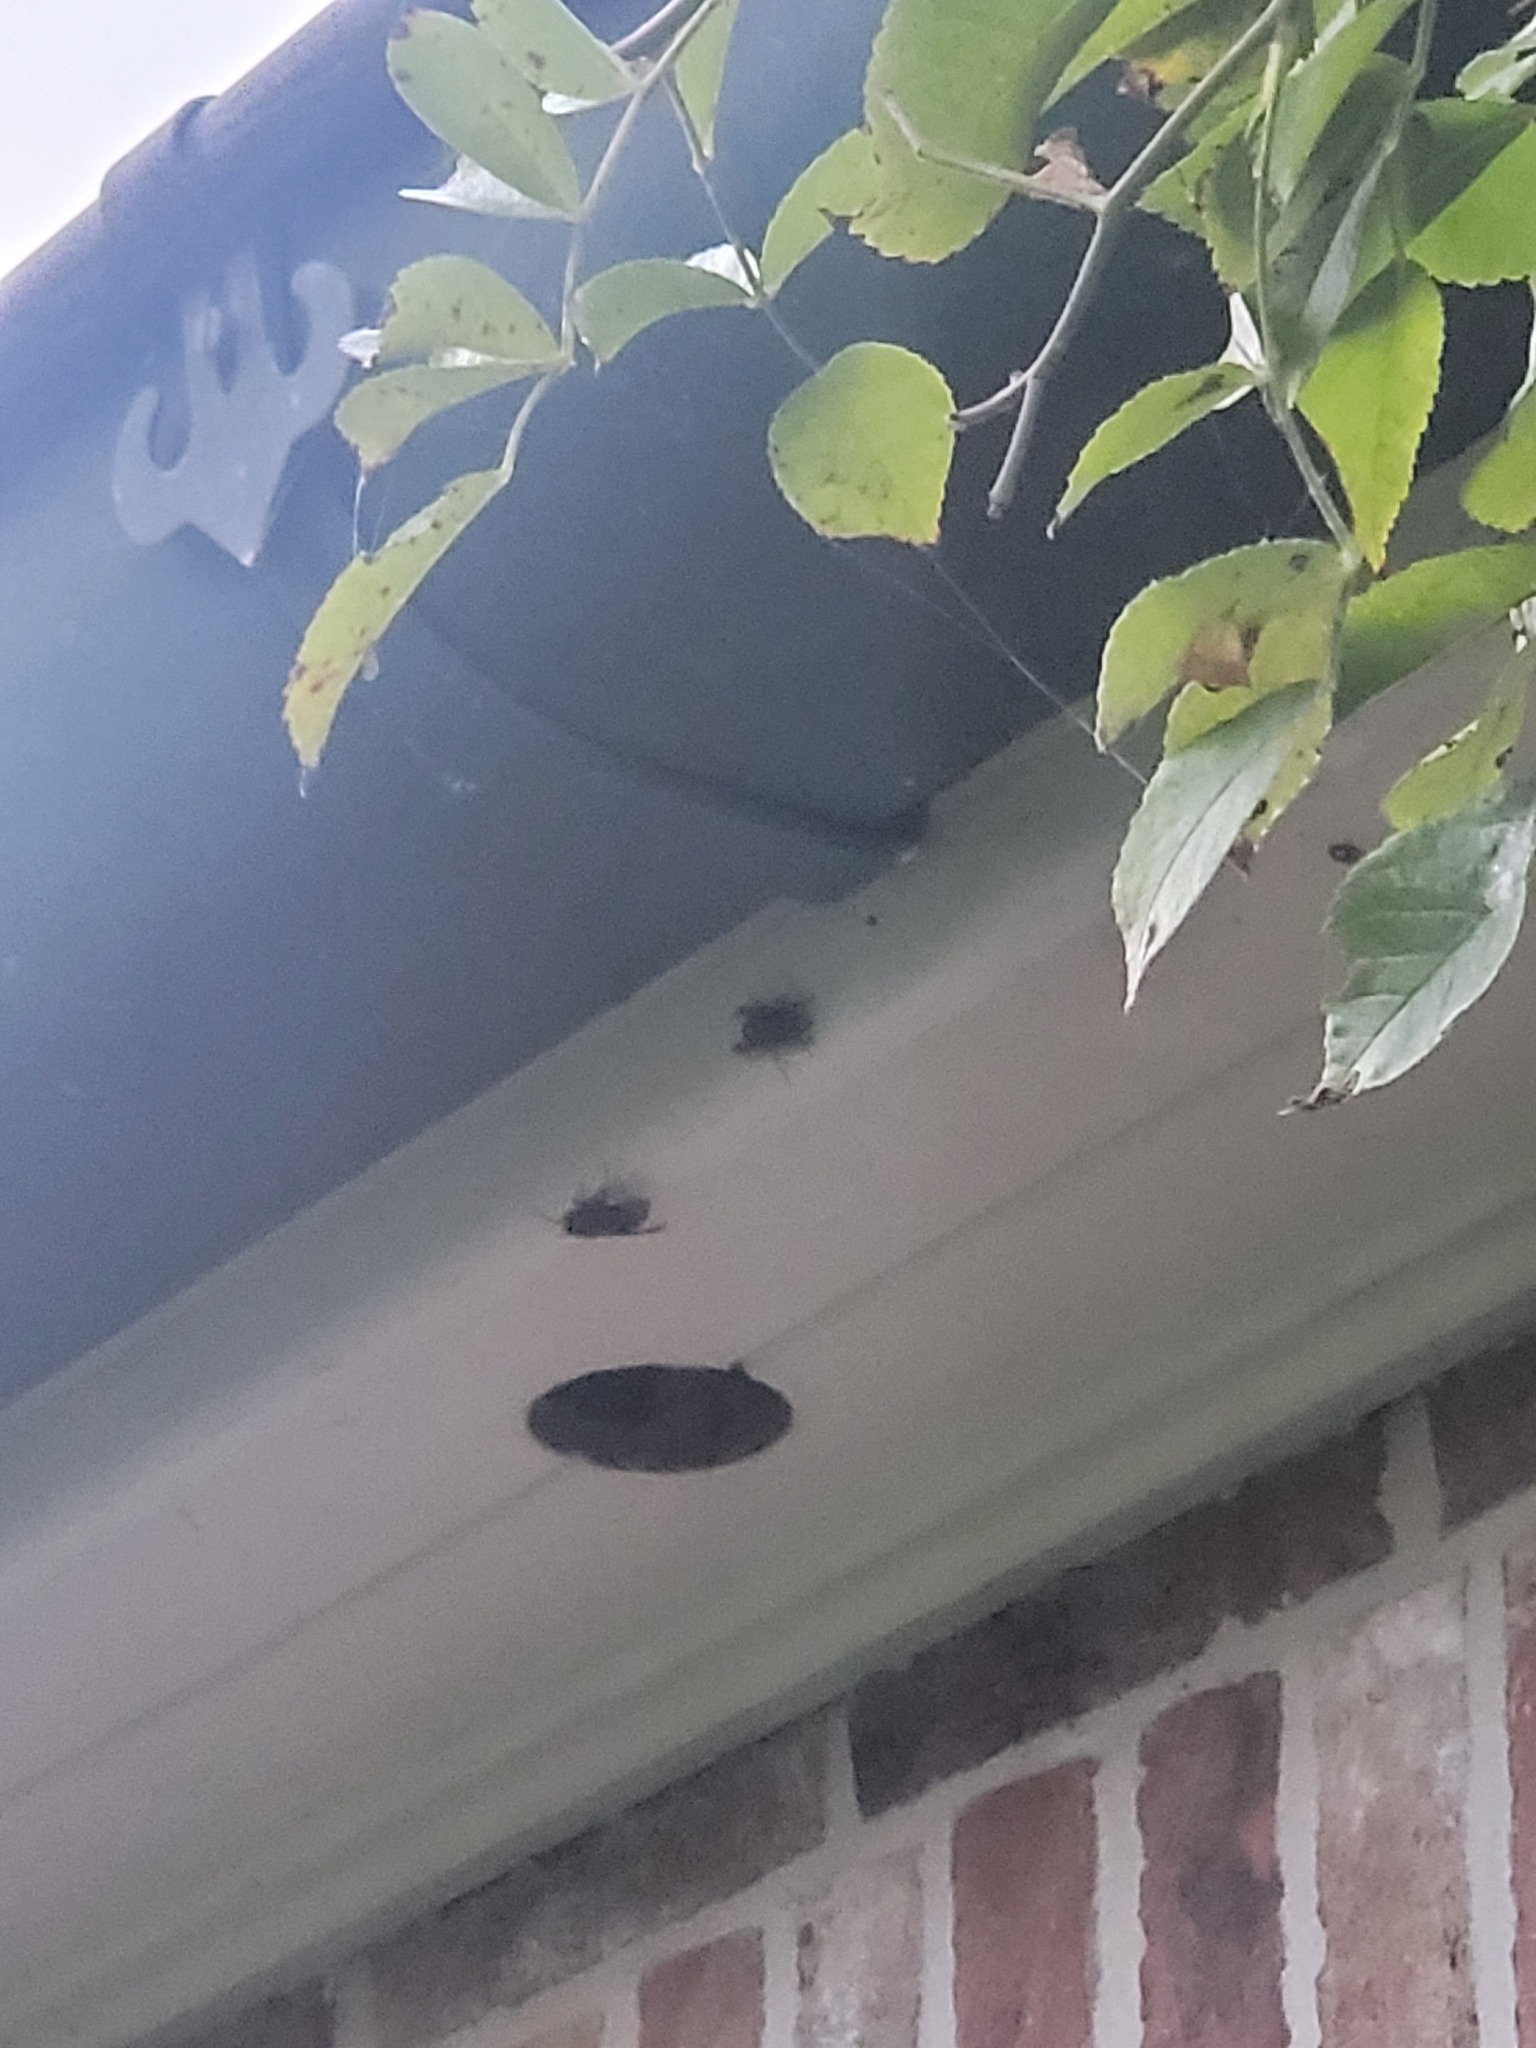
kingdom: Animalia
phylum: Arthropoda
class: Insecta
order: Hymenoptera
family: Vespidae
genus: Vespa
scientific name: Vespa velutina
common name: Asian hornet
